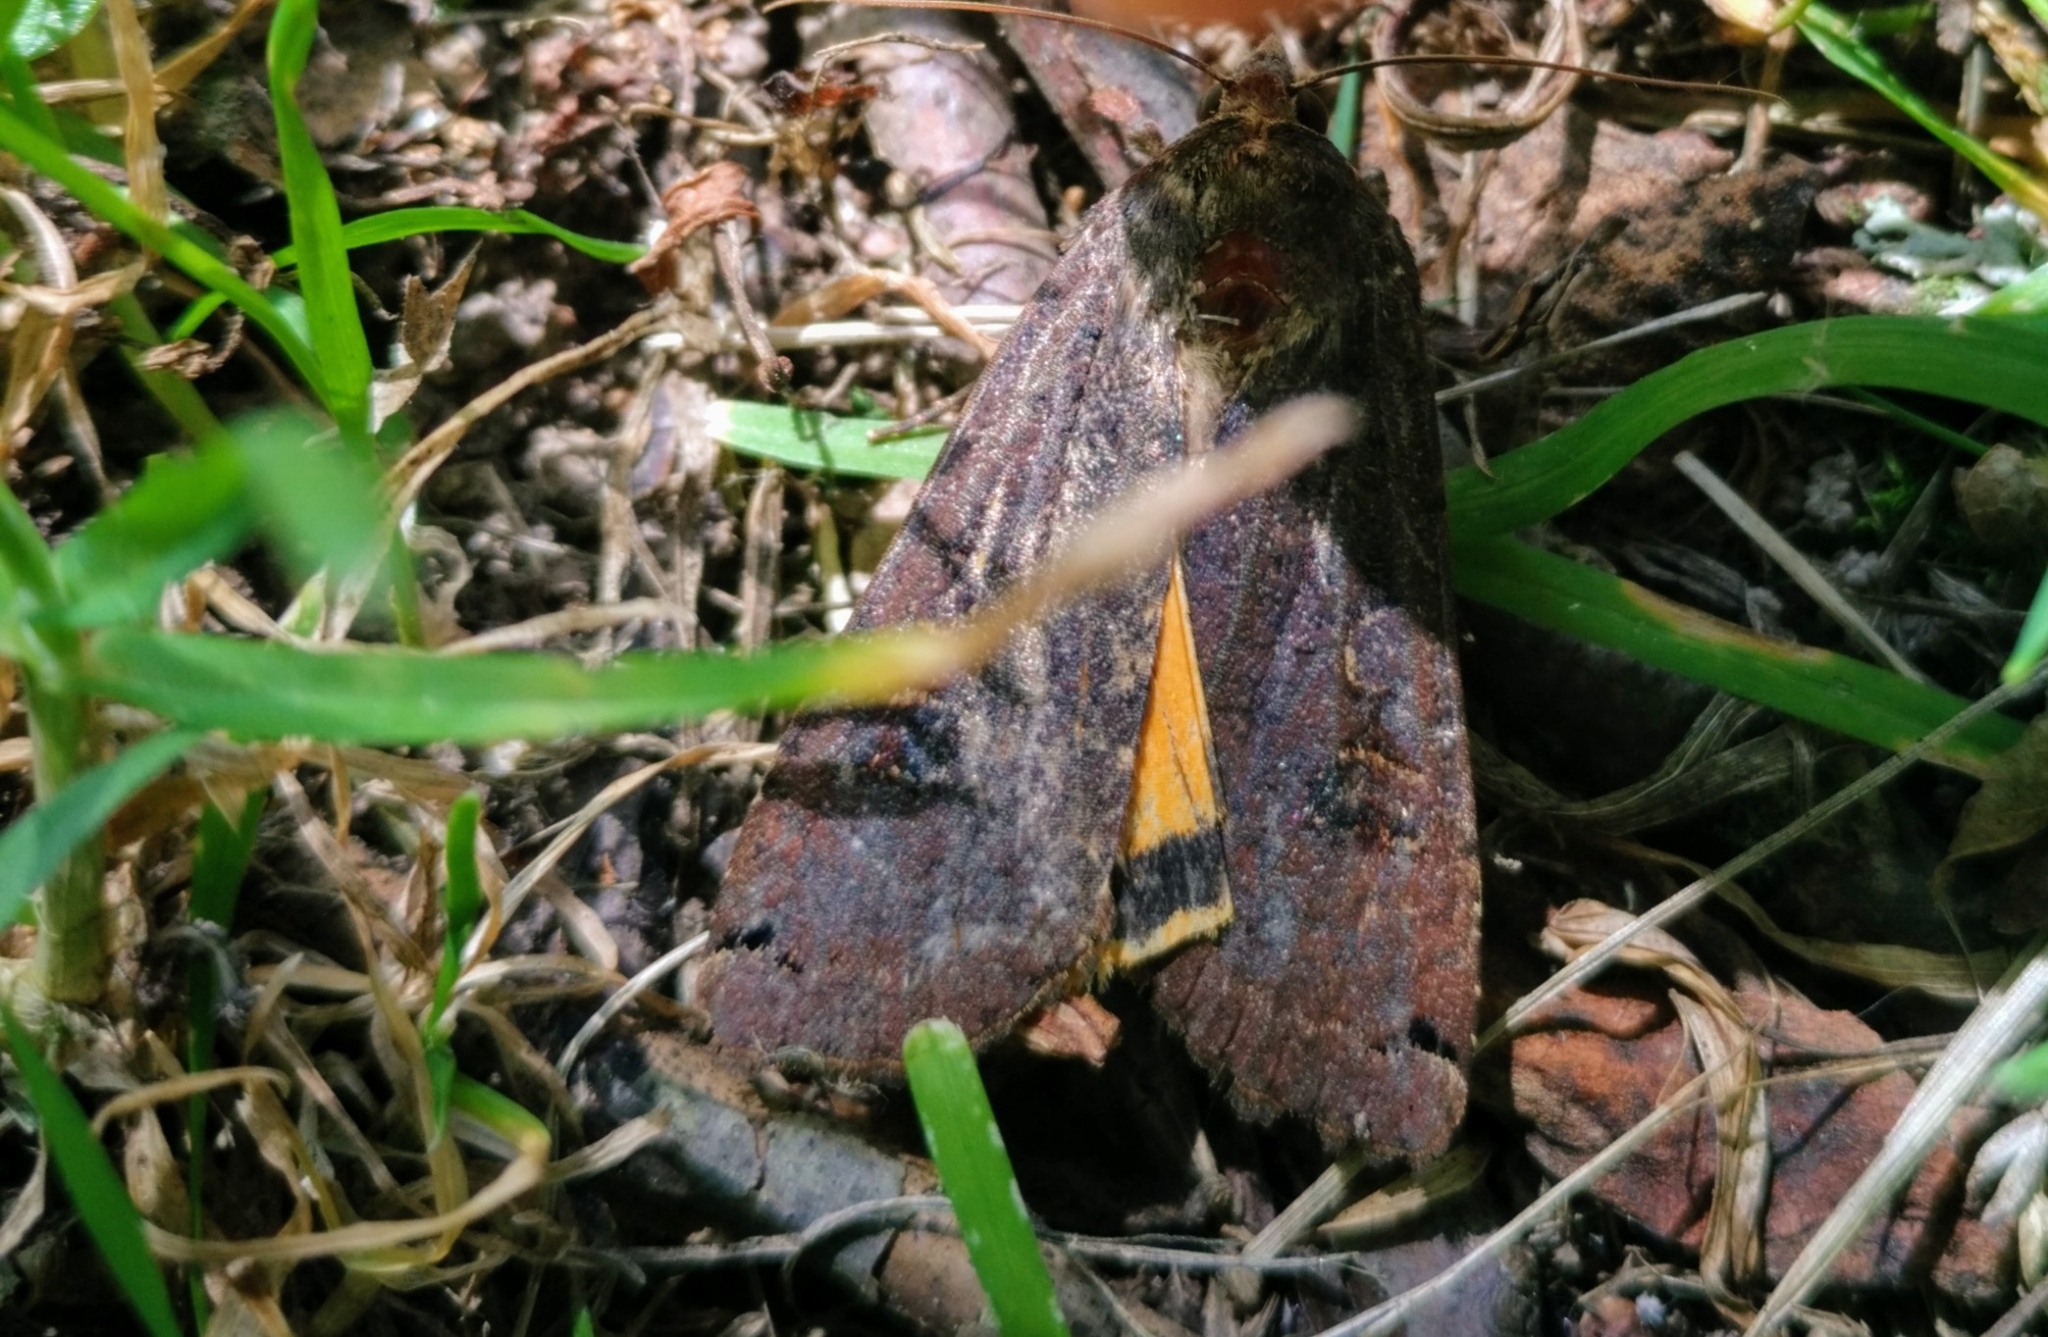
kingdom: Animalia
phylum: Arthropoda
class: Insecta
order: Lepidoptera
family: Noctuidae
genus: Noctua
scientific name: Noctua pronuba
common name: Large yellow underwing
